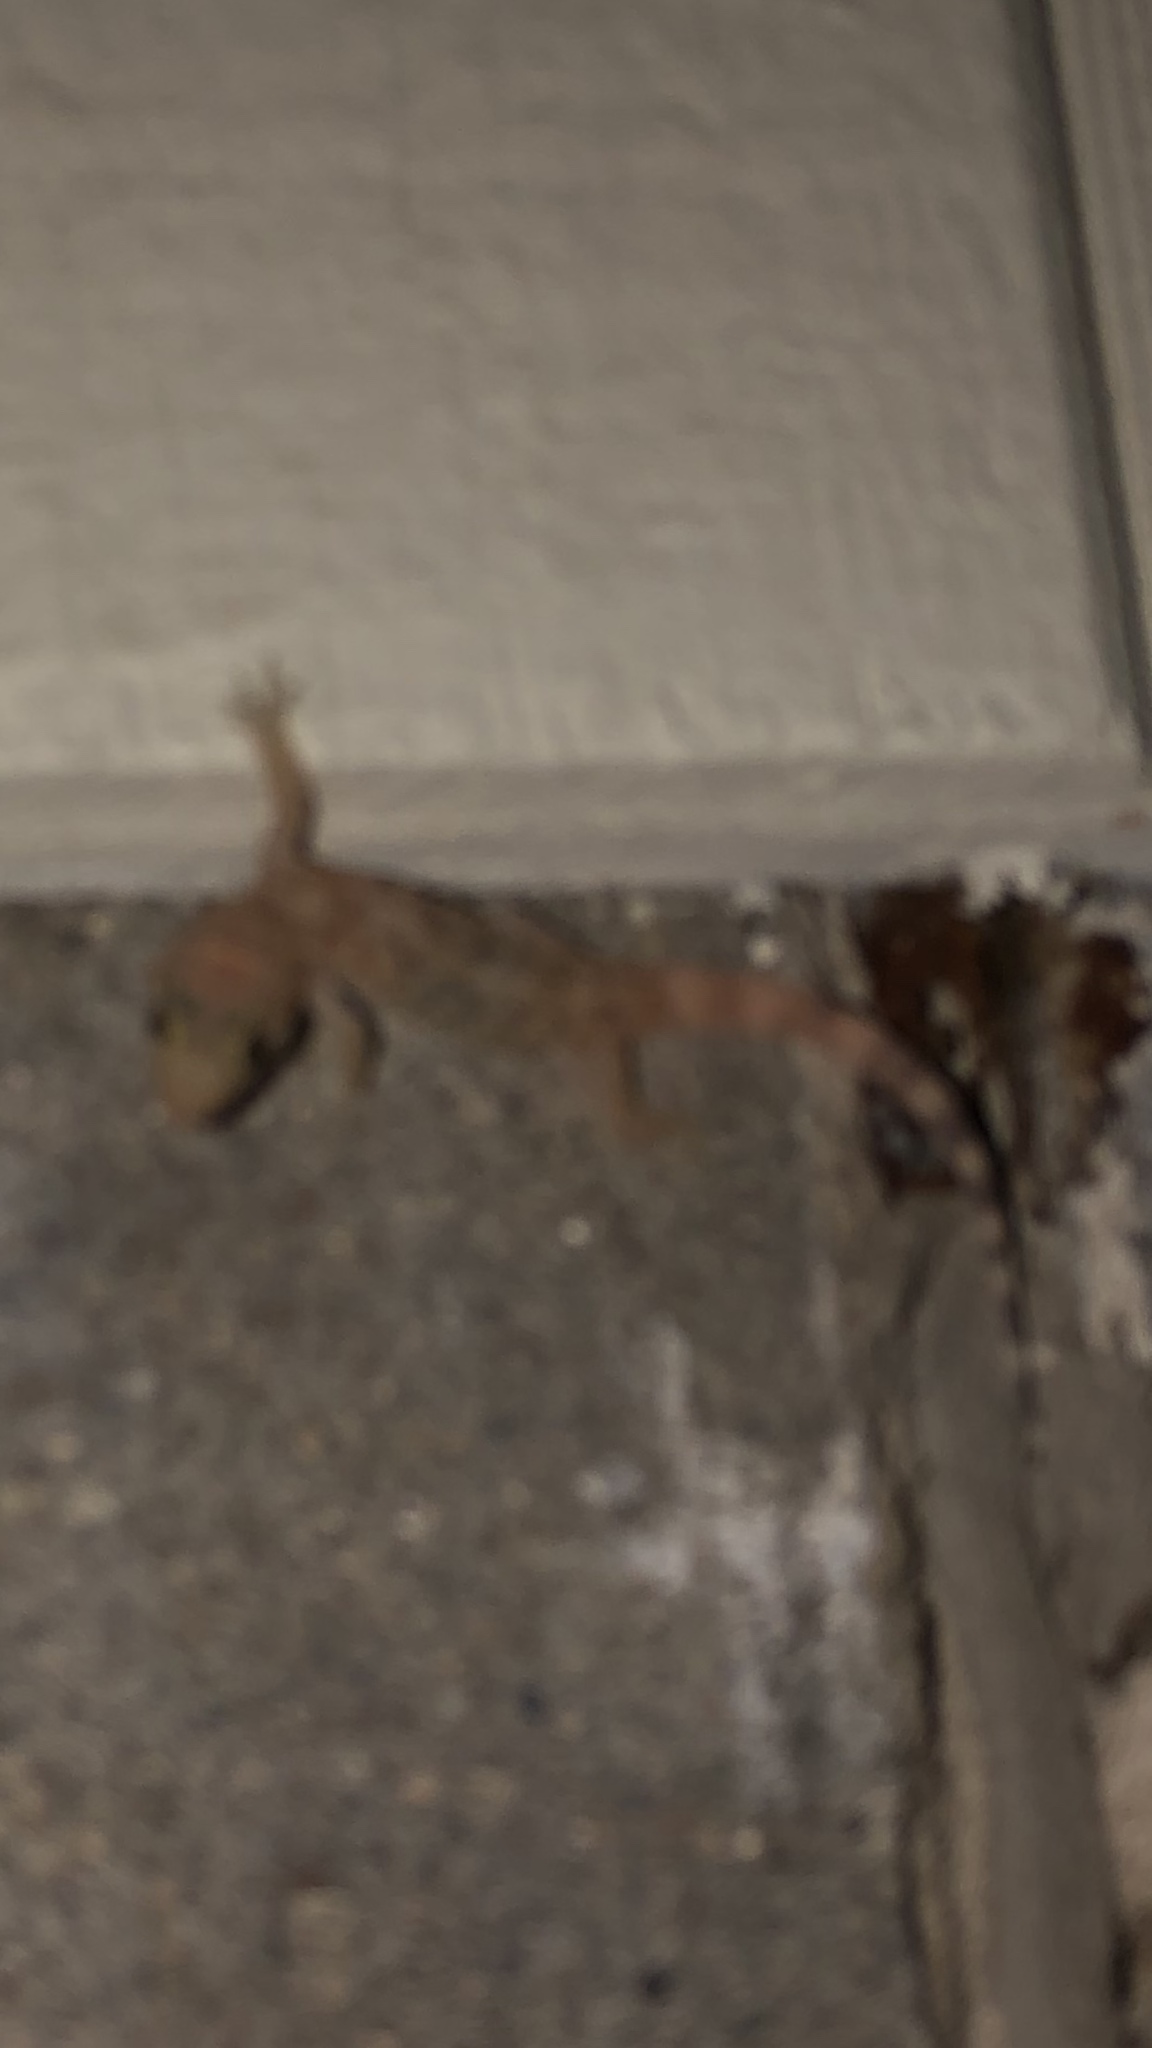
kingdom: Animalia
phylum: Chordata
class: Squamata
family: Gekkonidae
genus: Hemidactylus
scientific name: Hemidactylus turcicus
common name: Turkish gecko
